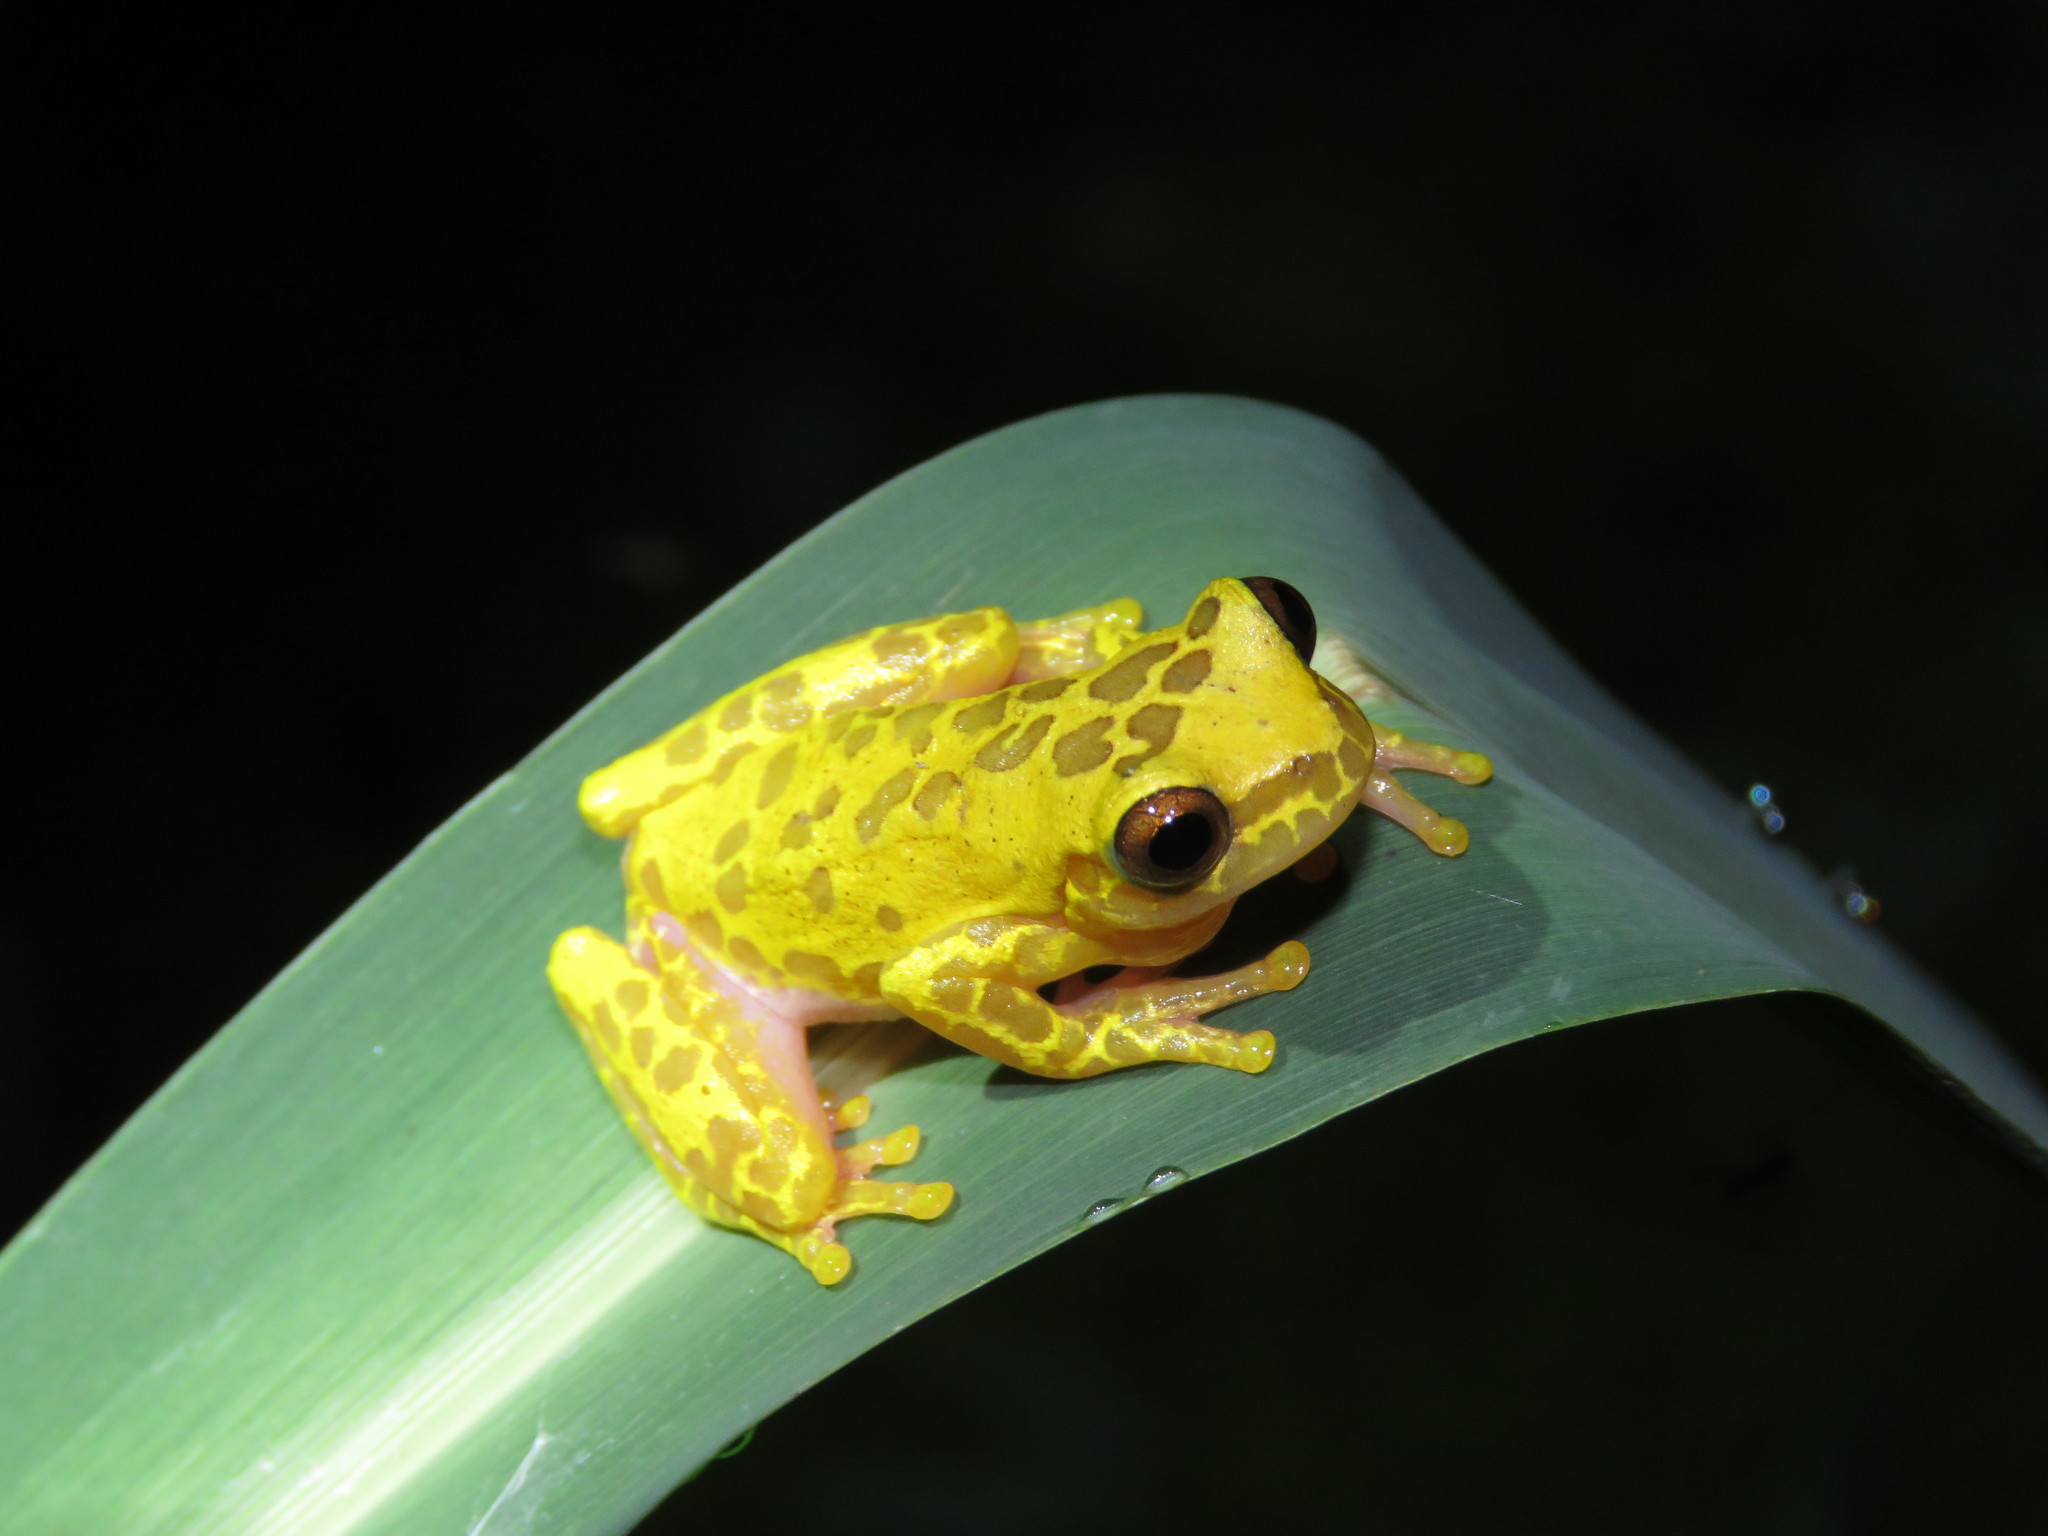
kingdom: Animalia
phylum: Chordata
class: Amphibia
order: Anura
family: Hylidae
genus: Dendropsophus
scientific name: Dendropsophus arndti
